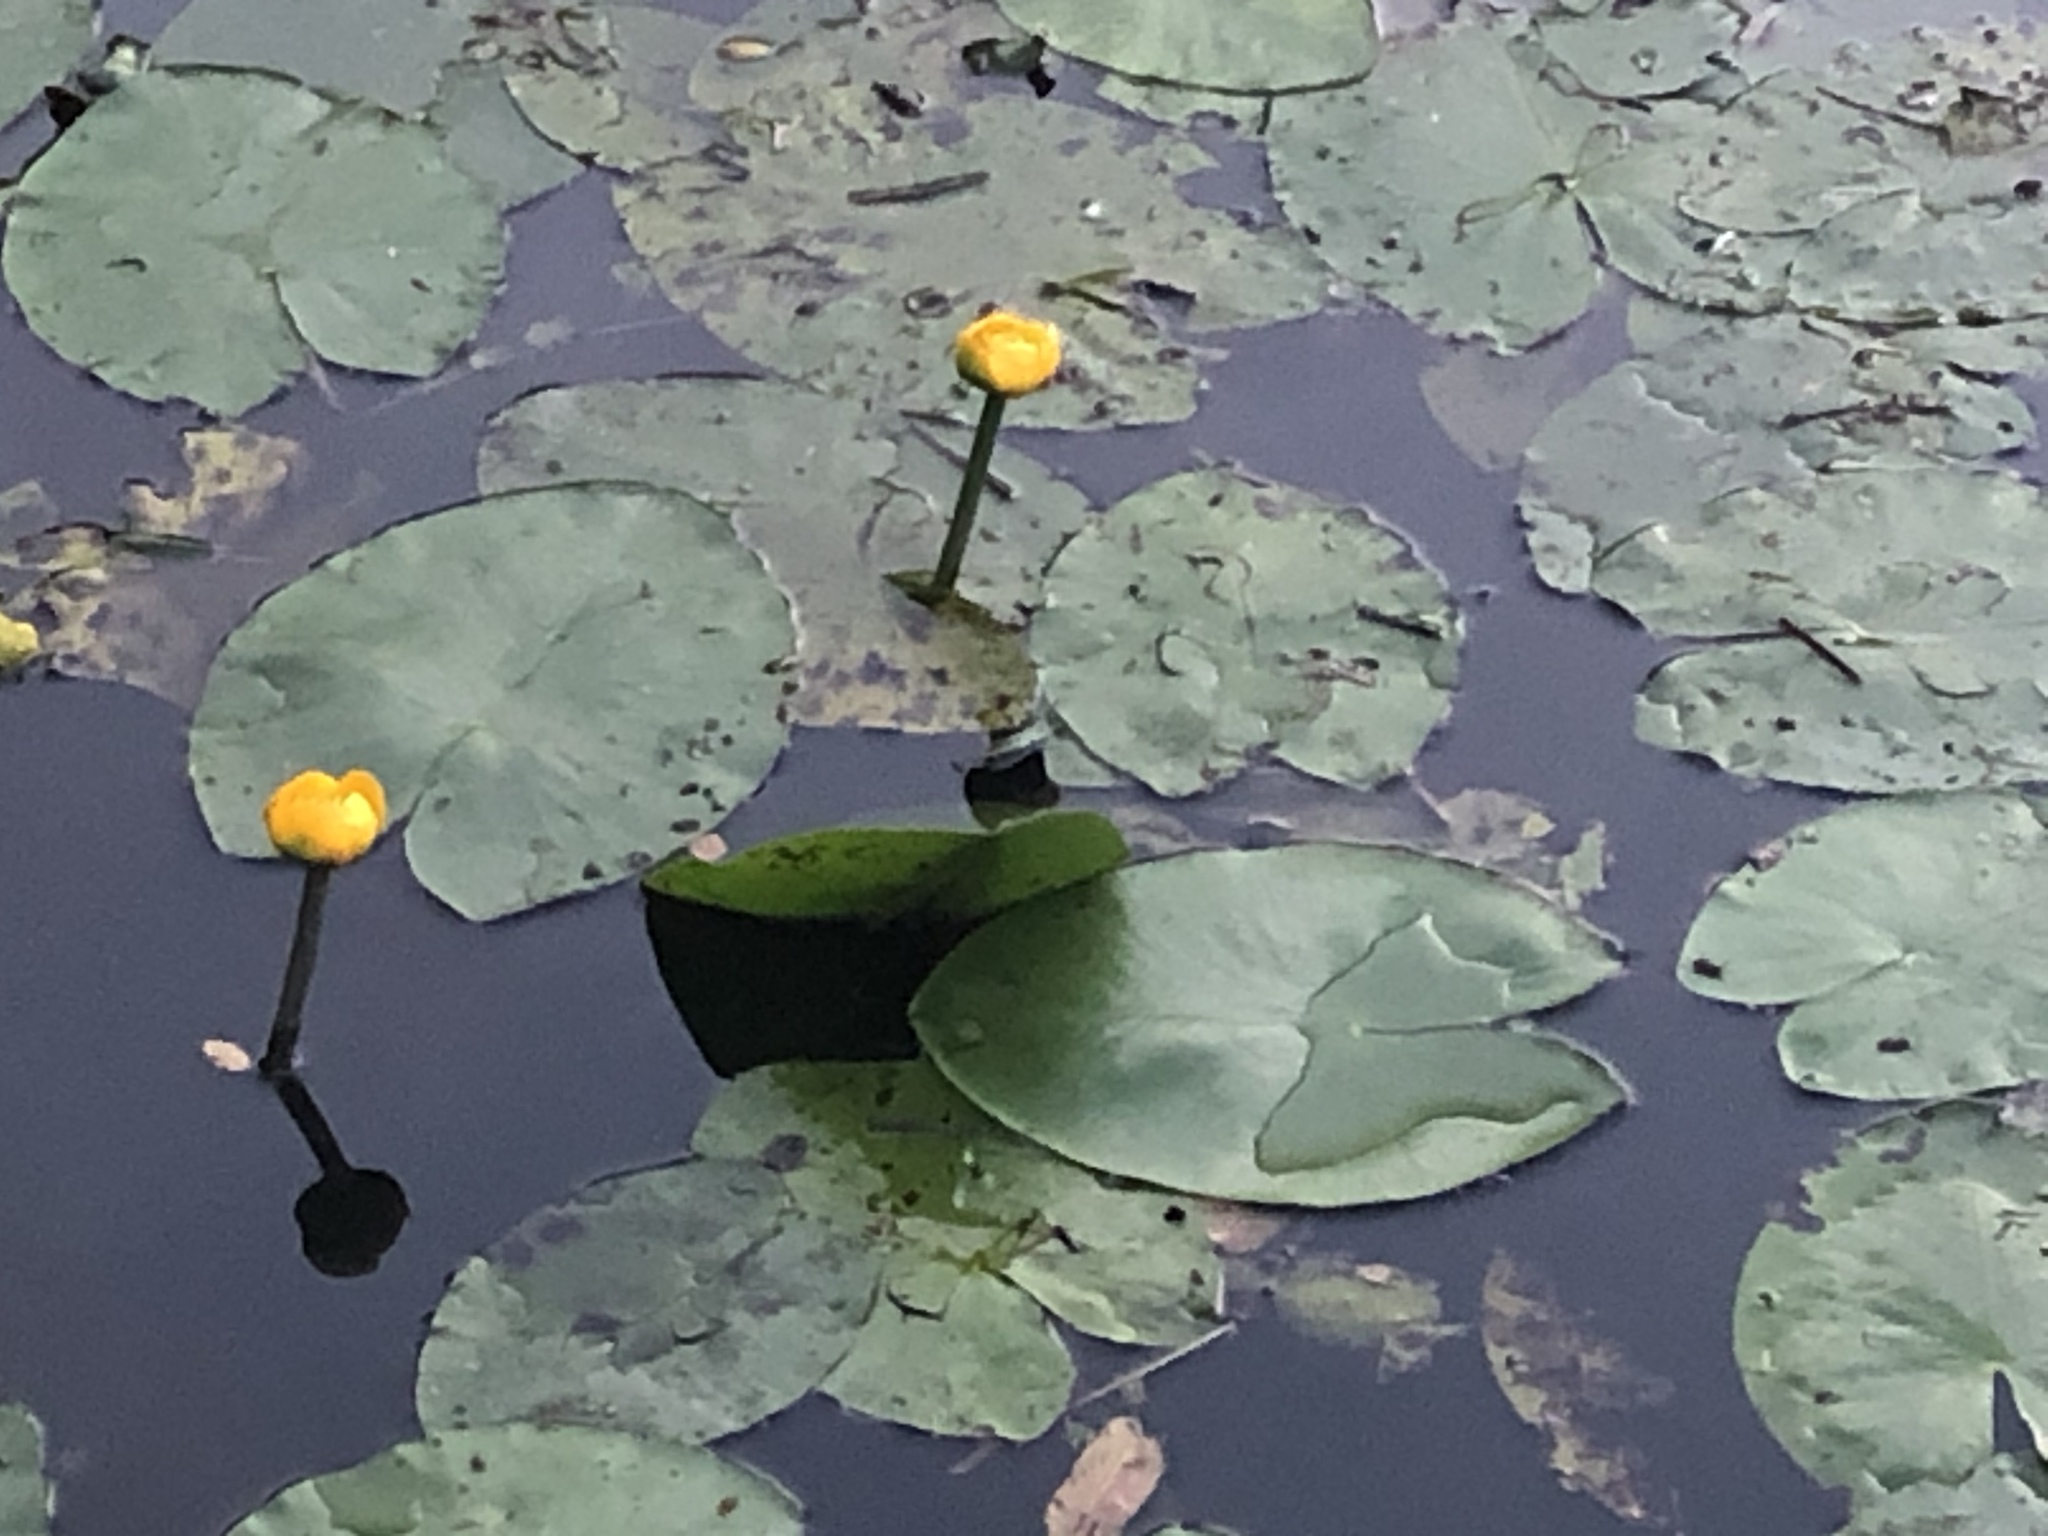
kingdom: Plantae
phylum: Tracheophyta
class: Magnoliopsida
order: Nymphaeales
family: Nymphaeaceae
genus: Nuphar
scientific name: Nuphar lutea
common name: Yellow water-lily
